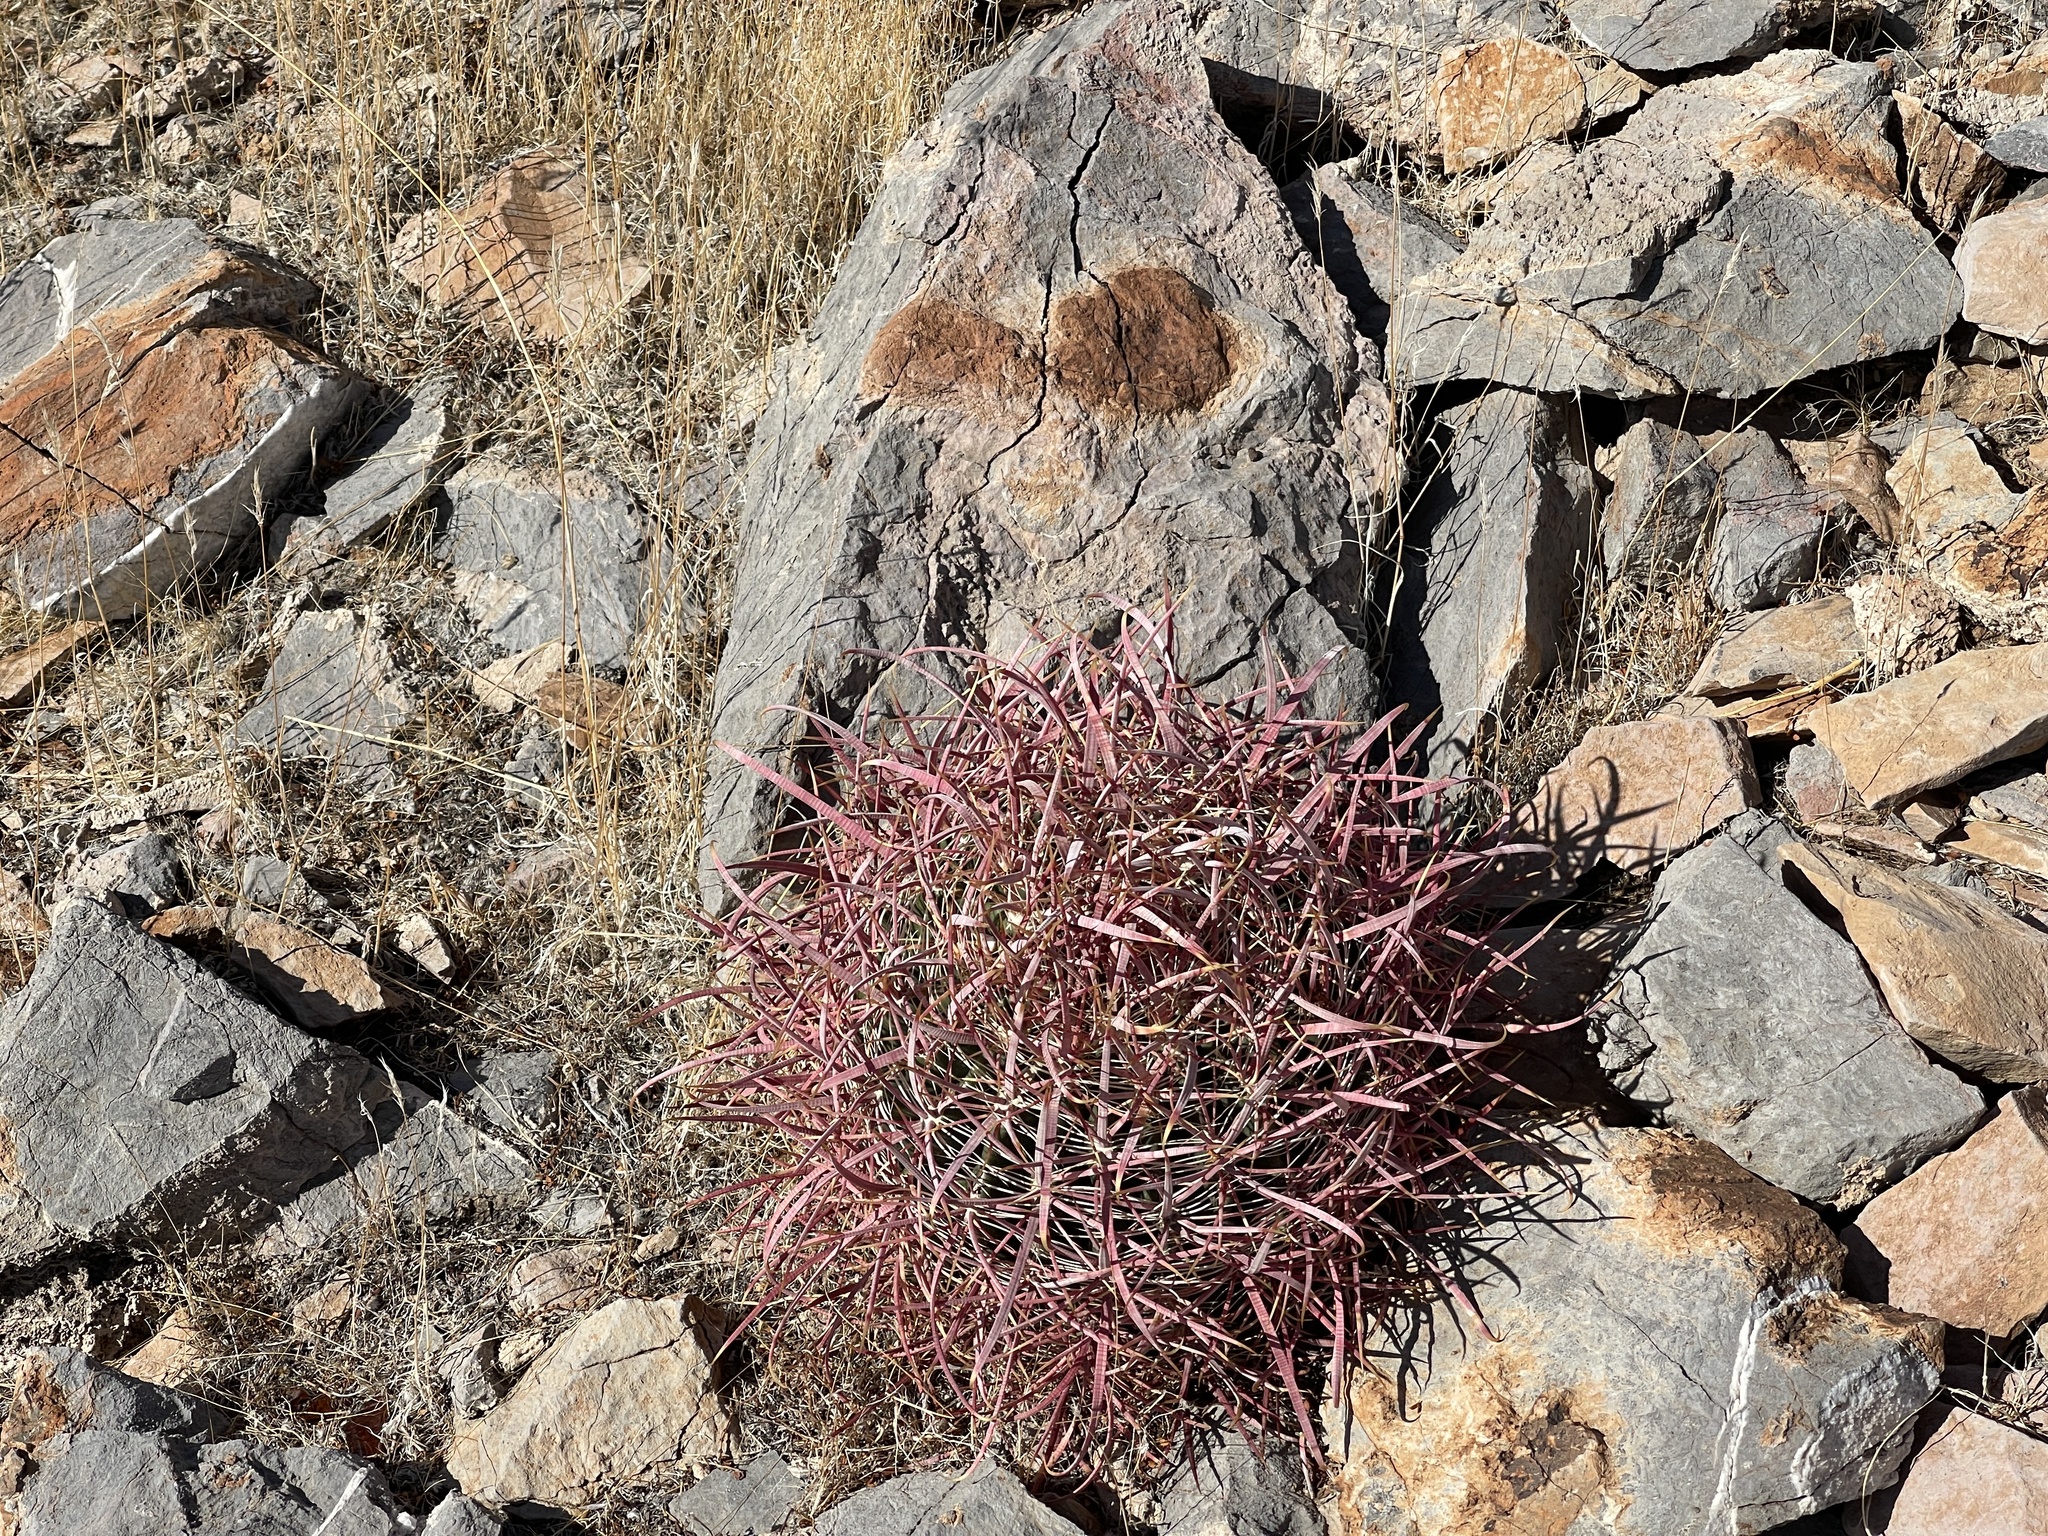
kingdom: Plantae
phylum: Tracheophyta
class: Magnoliopsida
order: Caryophyllales
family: Cactaceae
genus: Ferocactus
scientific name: Ferocactus cylindraceus
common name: California barrel cactus
